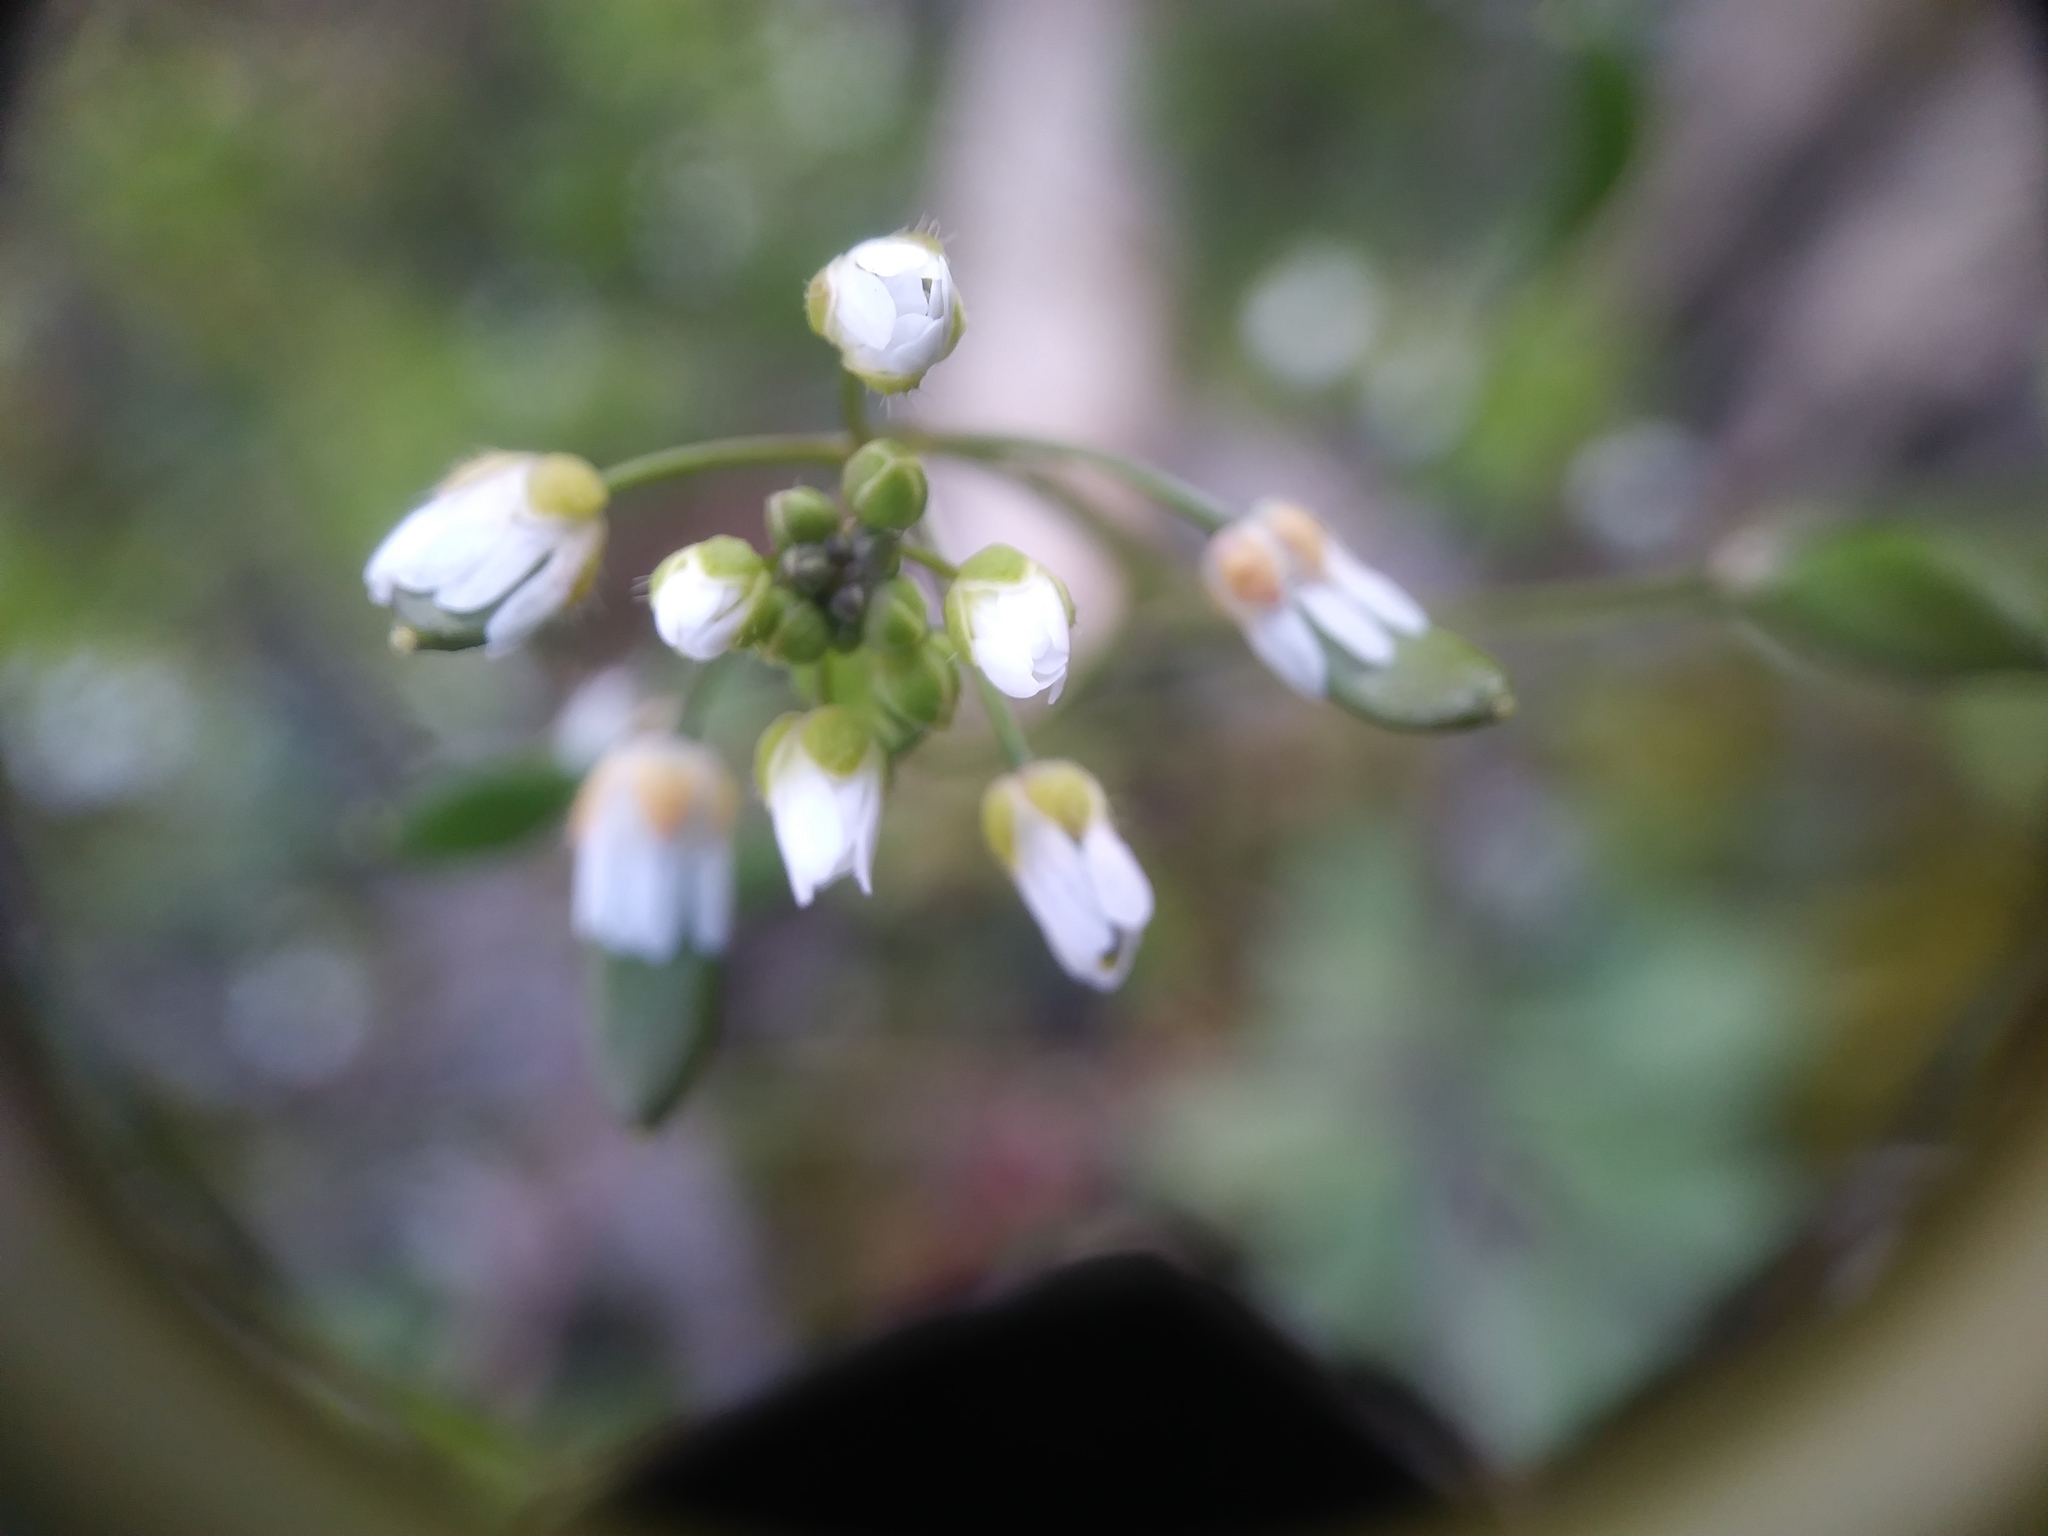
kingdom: Plantae
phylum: Tracheophyta
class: Magnoliopsida
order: Brassicales
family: Brassicaceae
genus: Draba
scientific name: Draba verna
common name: Spring draba
